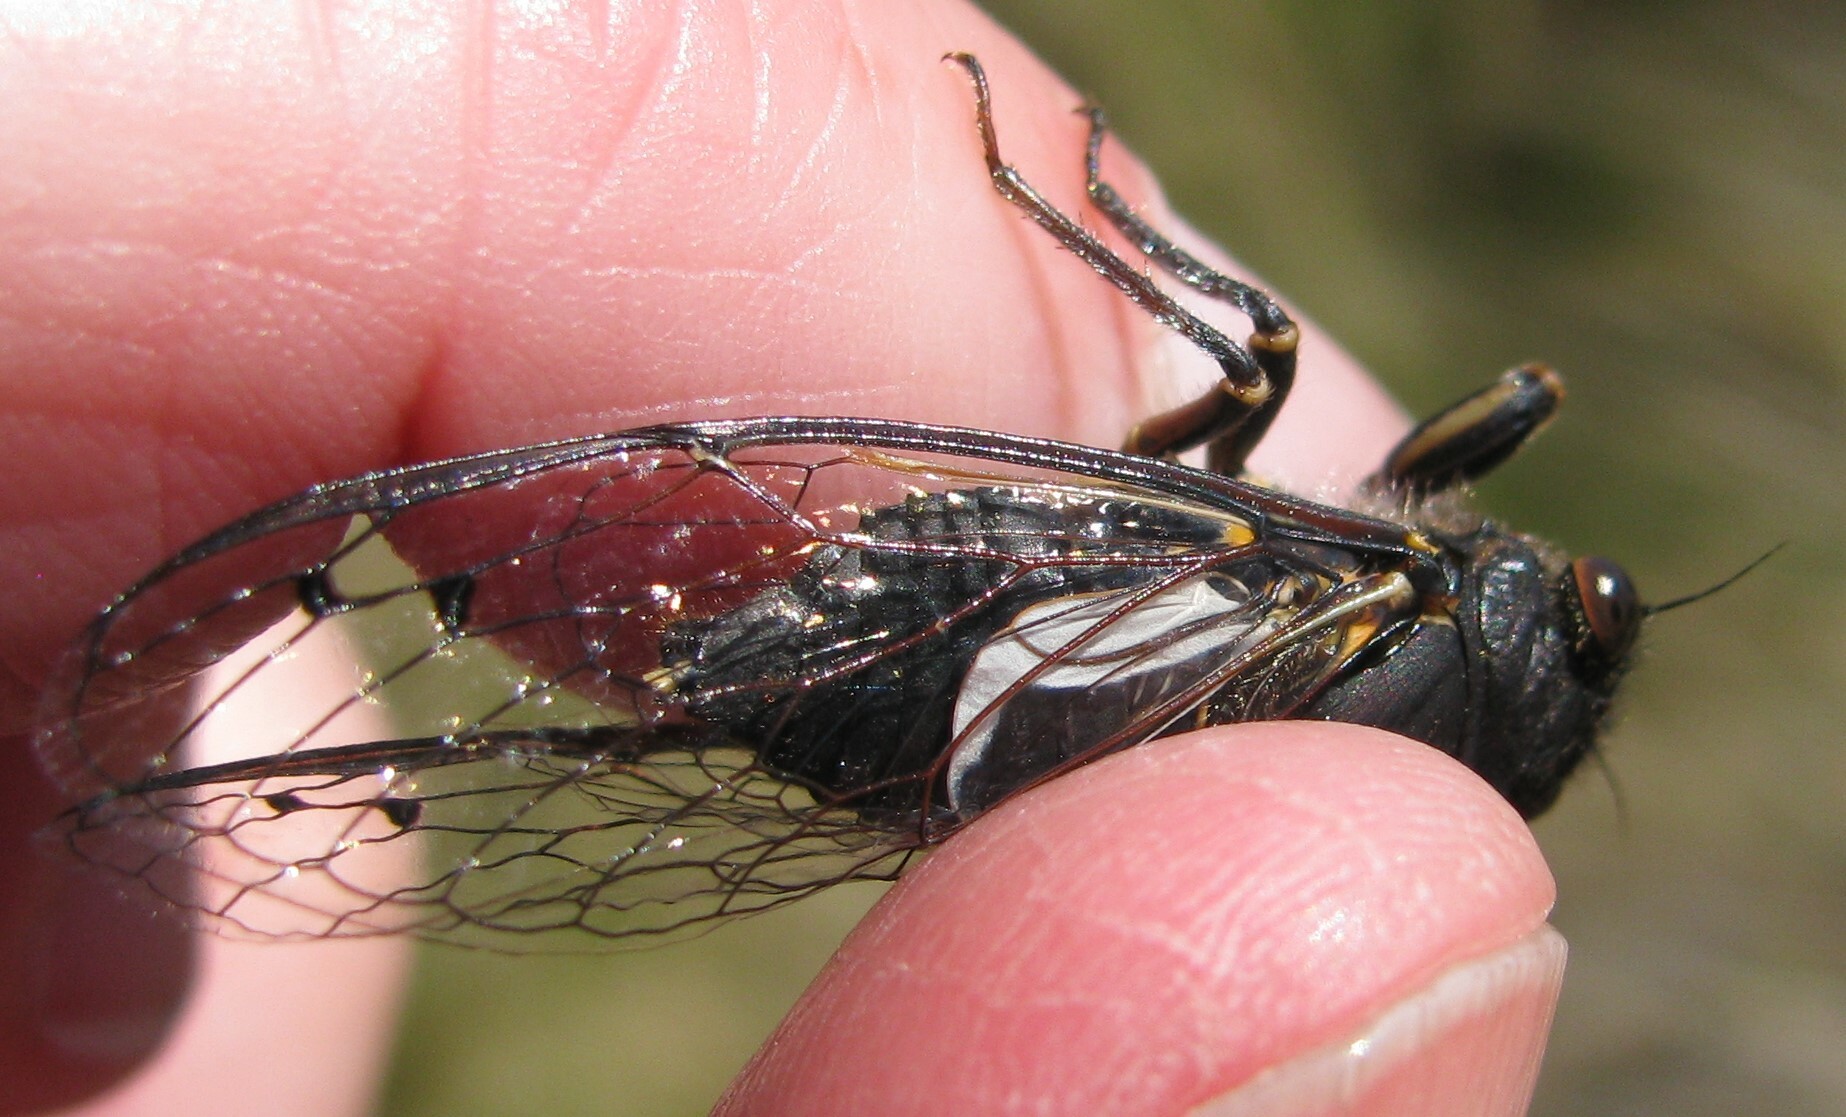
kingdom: Animalia
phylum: Arthropoda
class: Insecta
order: Hemiptera
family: Cicadidae
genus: Gelidea
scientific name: Gelidea torrida
